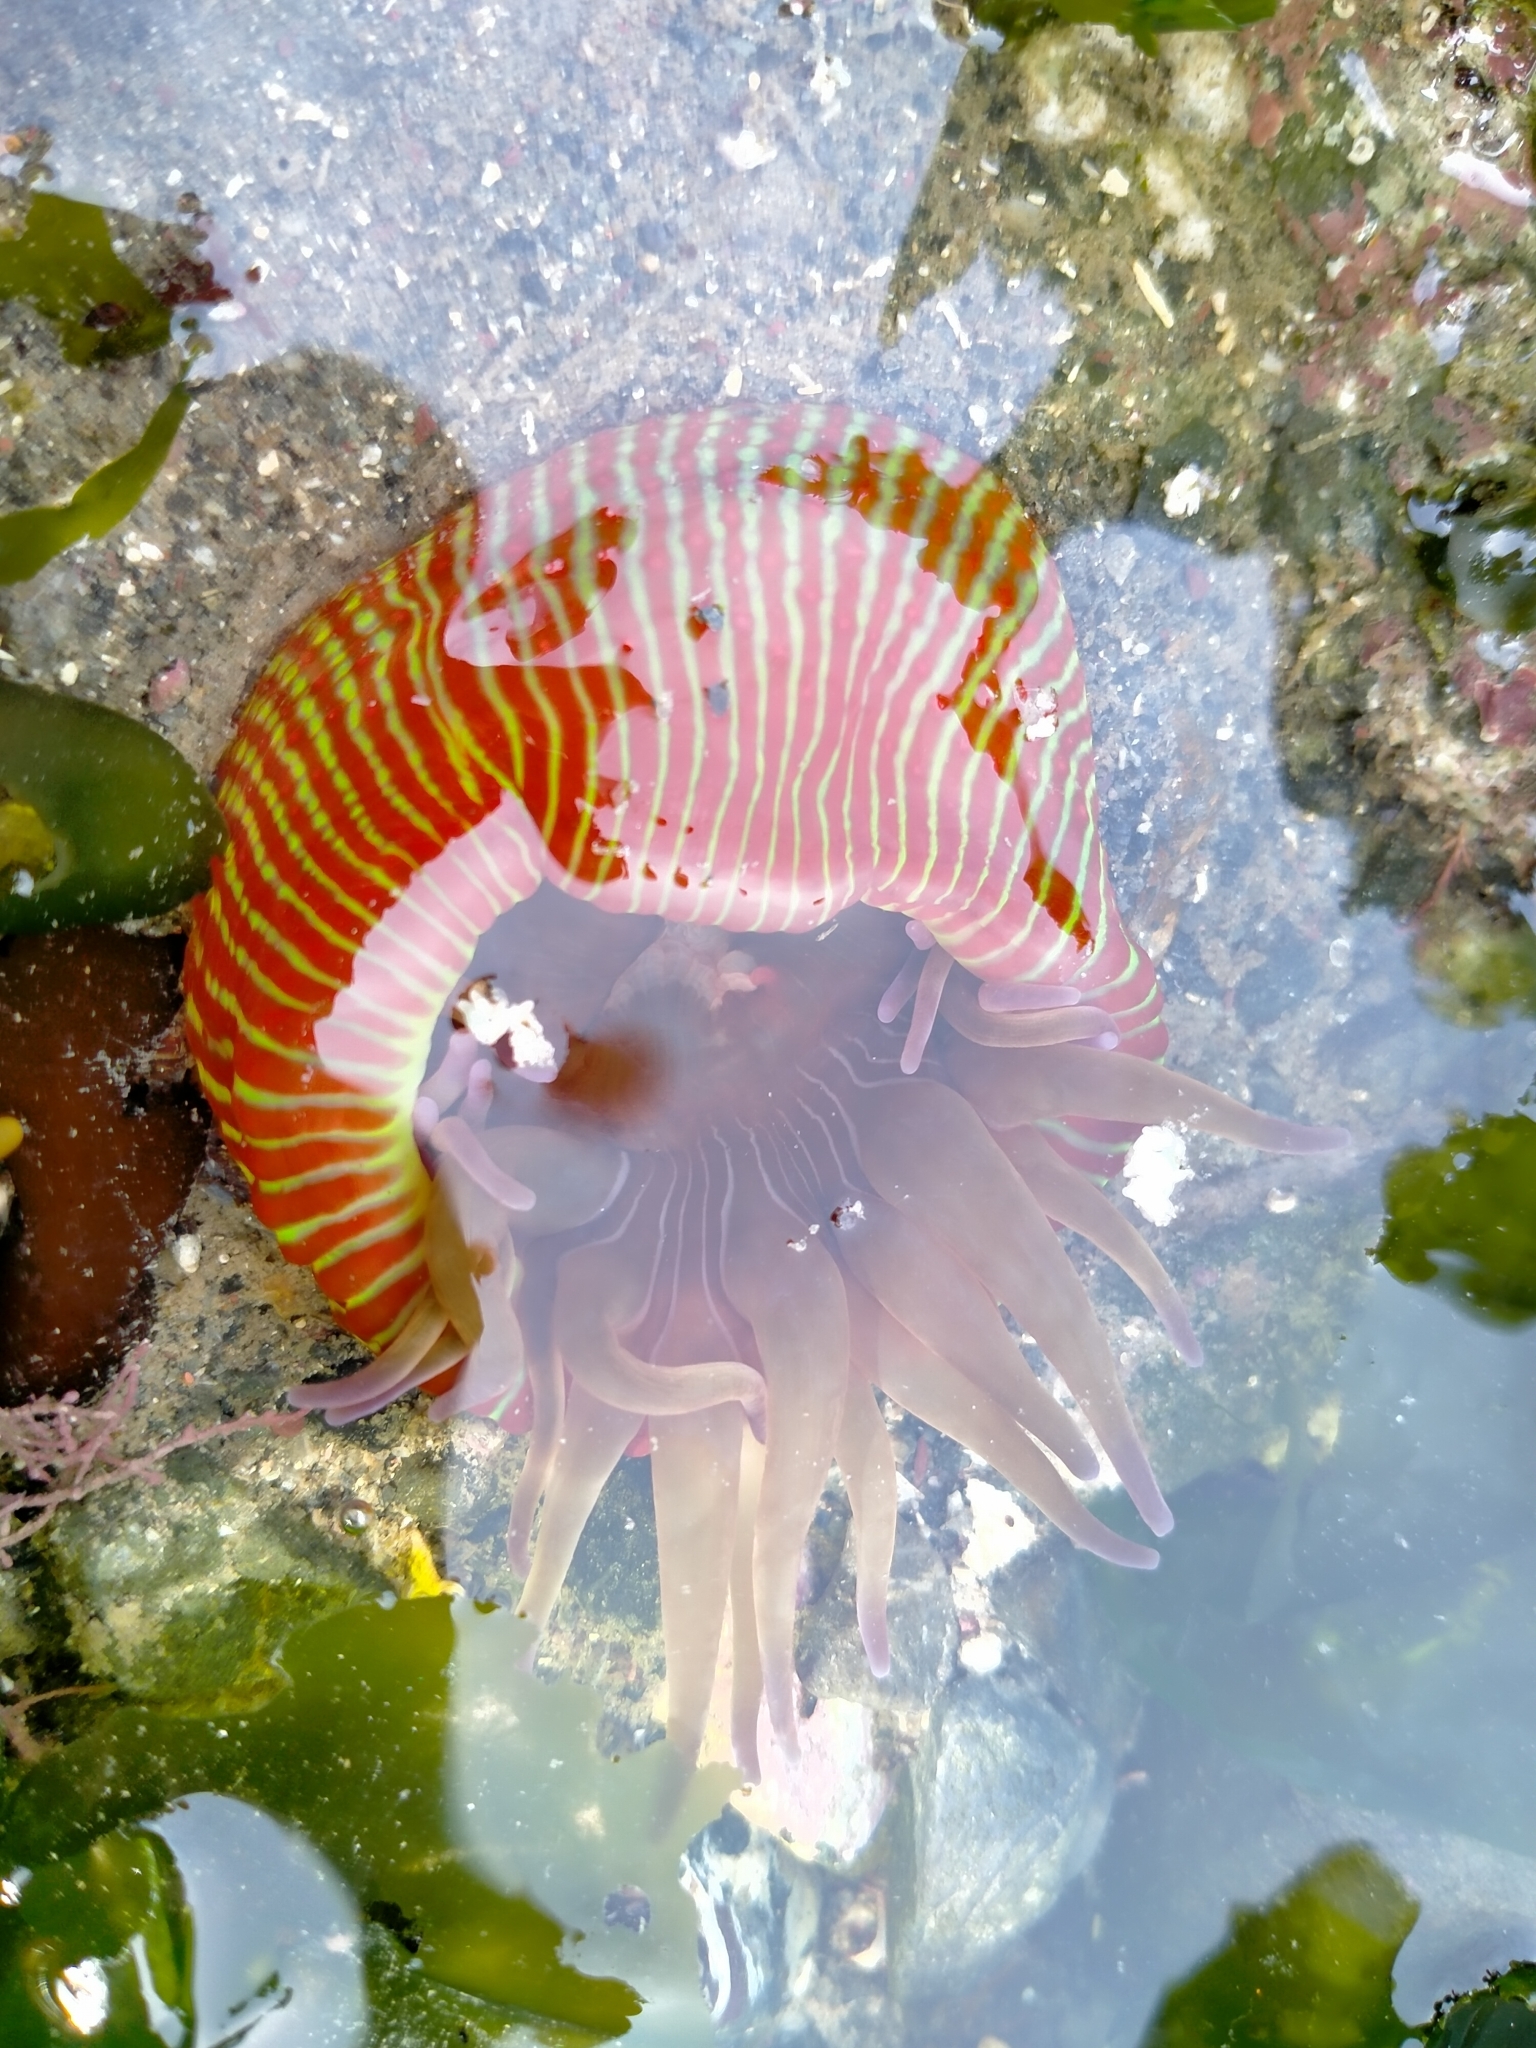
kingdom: Animalia
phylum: Cnidaria
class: Anthozoa
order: Actiniaria
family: Actiniidae
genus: Epiactis
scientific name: Epiactis thompsoni
